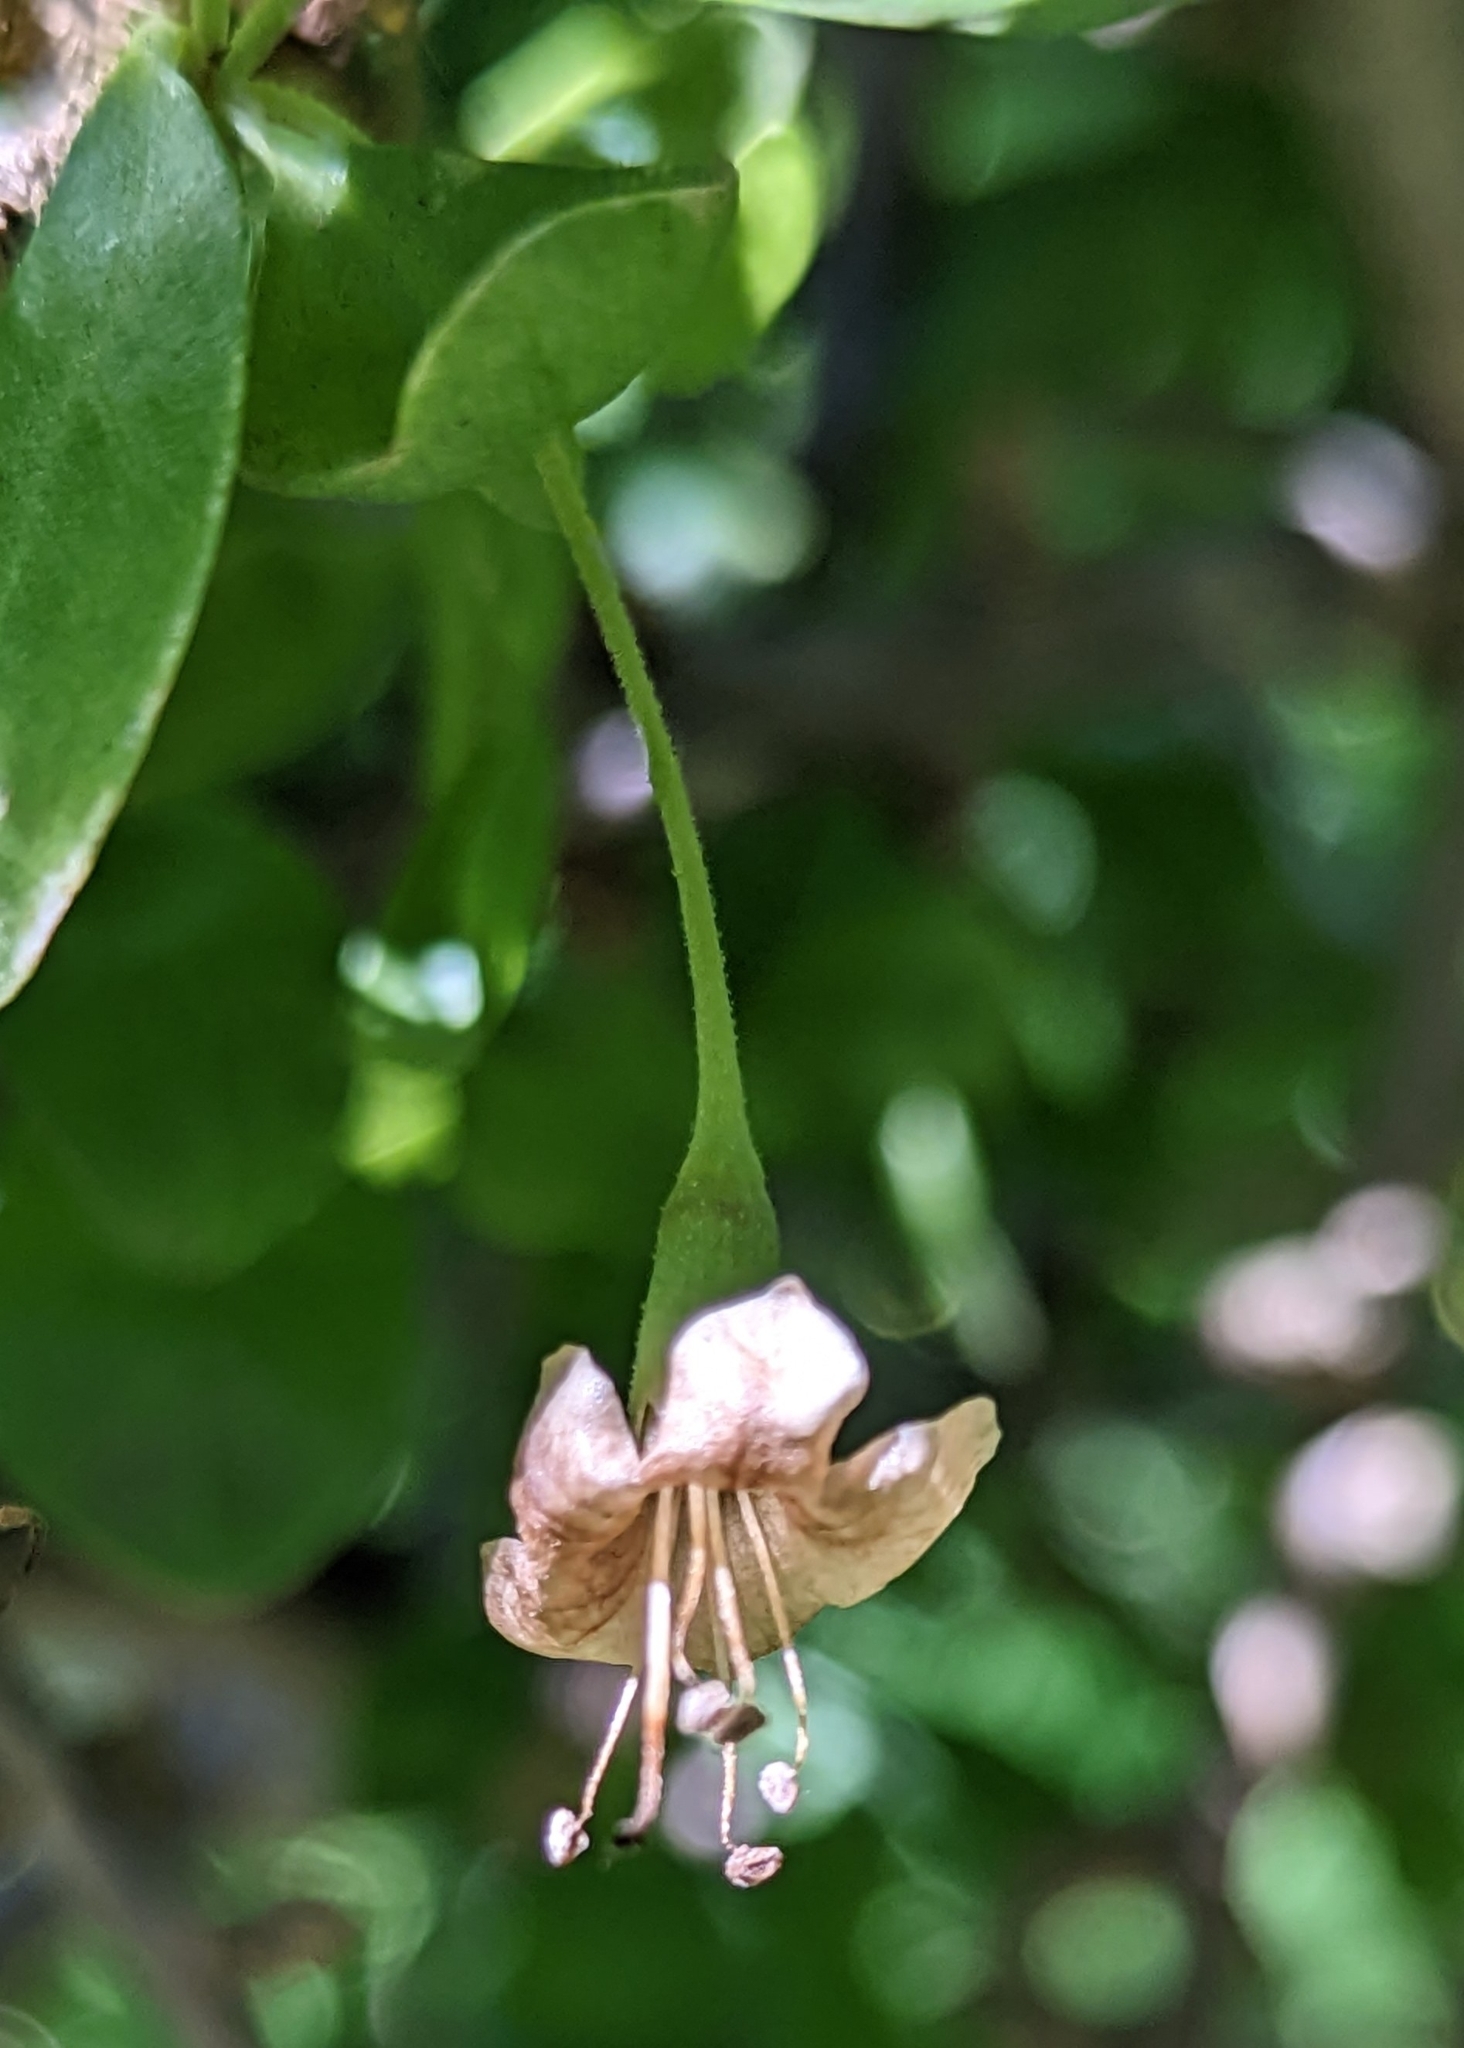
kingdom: Plantae
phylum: Tracheophyta
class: Magnoliopsida
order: Solanales
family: Solanaceae
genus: Lycium
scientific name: Lycium ferocissimum
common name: African boxthorn
